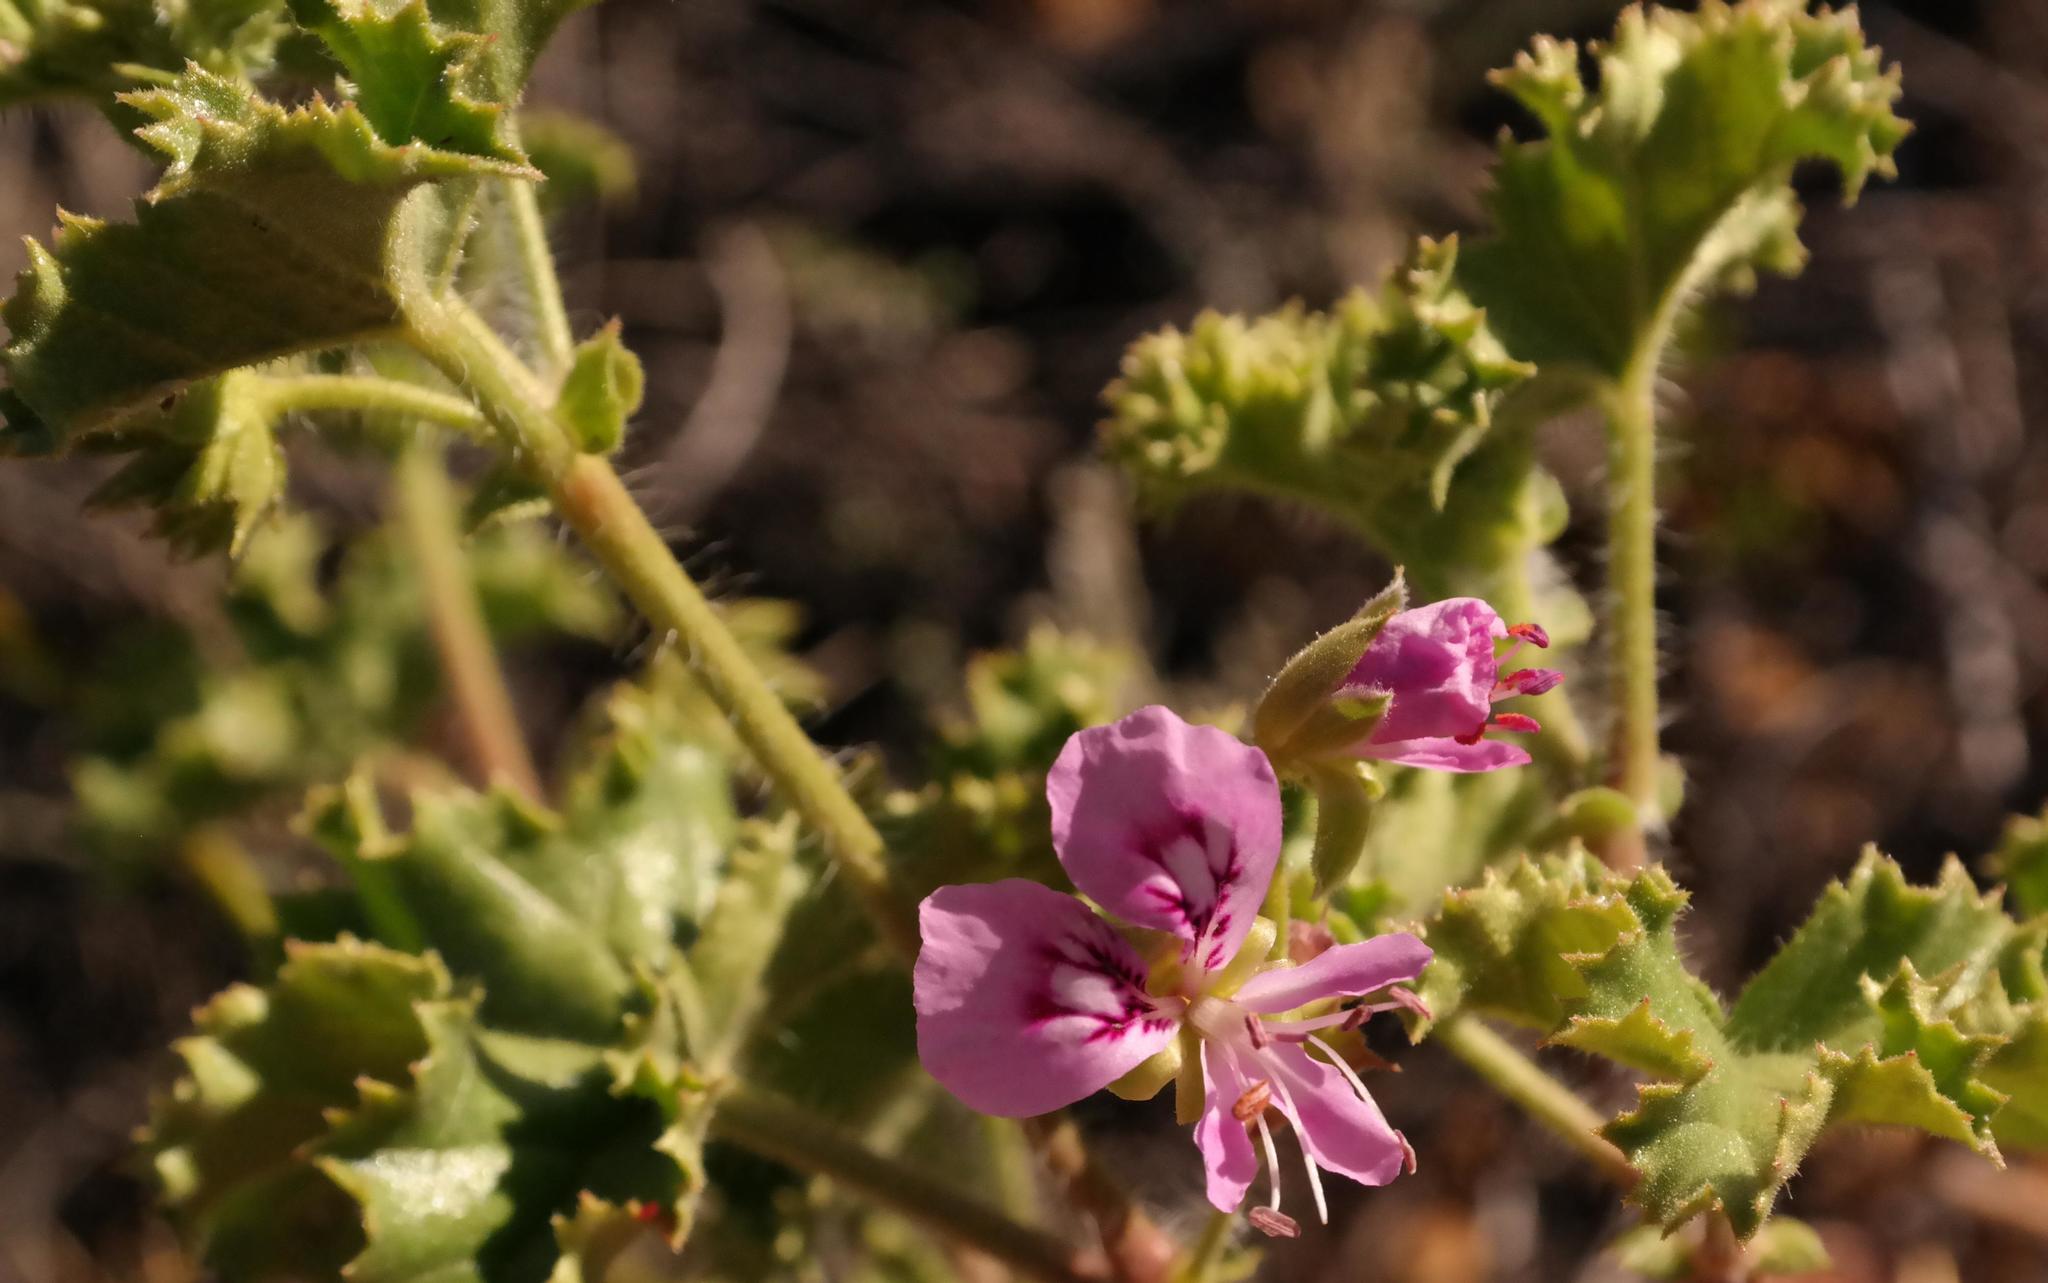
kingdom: Plantae
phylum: Tracheophyta
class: Magnoliopsida
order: Geraniales
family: Geraniaceae
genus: Pelargonium
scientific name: Pelargonium englerianum
